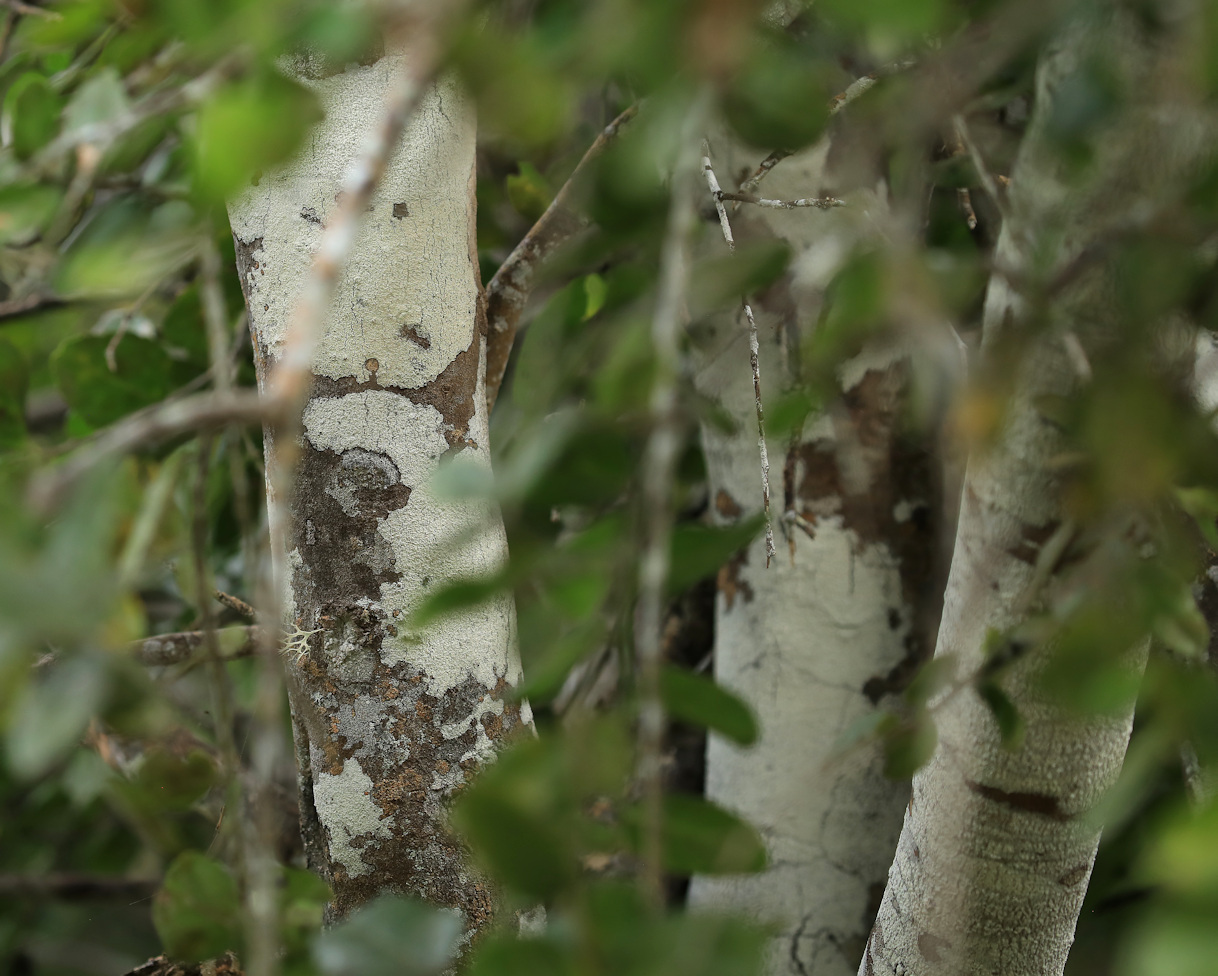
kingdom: Plantae
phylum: Tracheophyta
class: Magnoliopsida
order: Celastrales
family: Celastraceae
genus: Mystroxylon
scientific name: Mystroxylon aethiopicum
